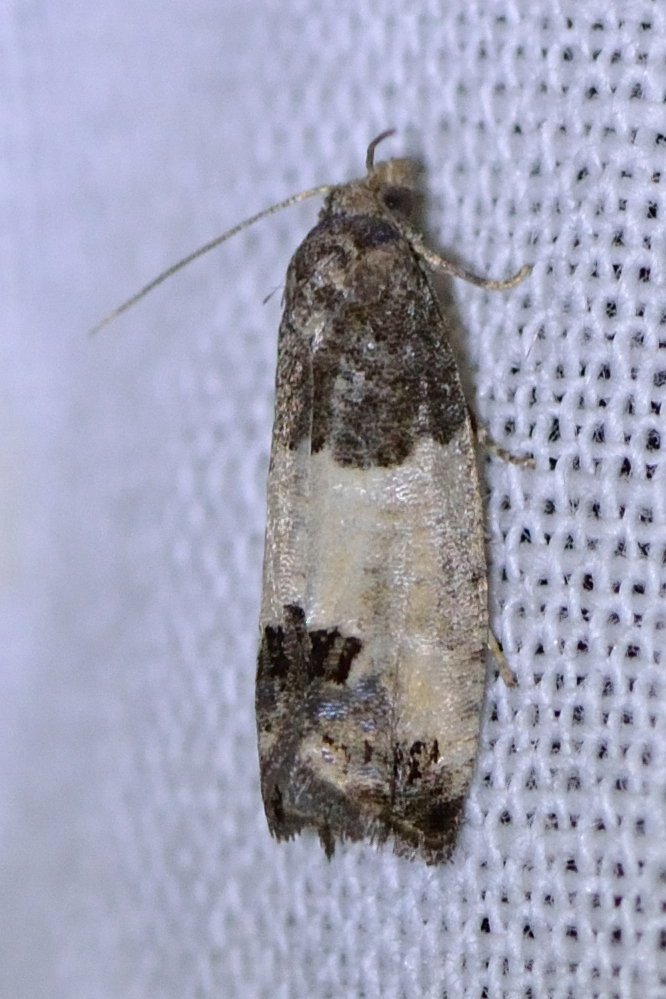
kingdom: Animalia
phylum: Arthropoda
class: Insecta
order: Lepidoptera
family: Tortricidae
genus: Spilonota
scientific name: Spilonota ocellana
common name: Bud moth
